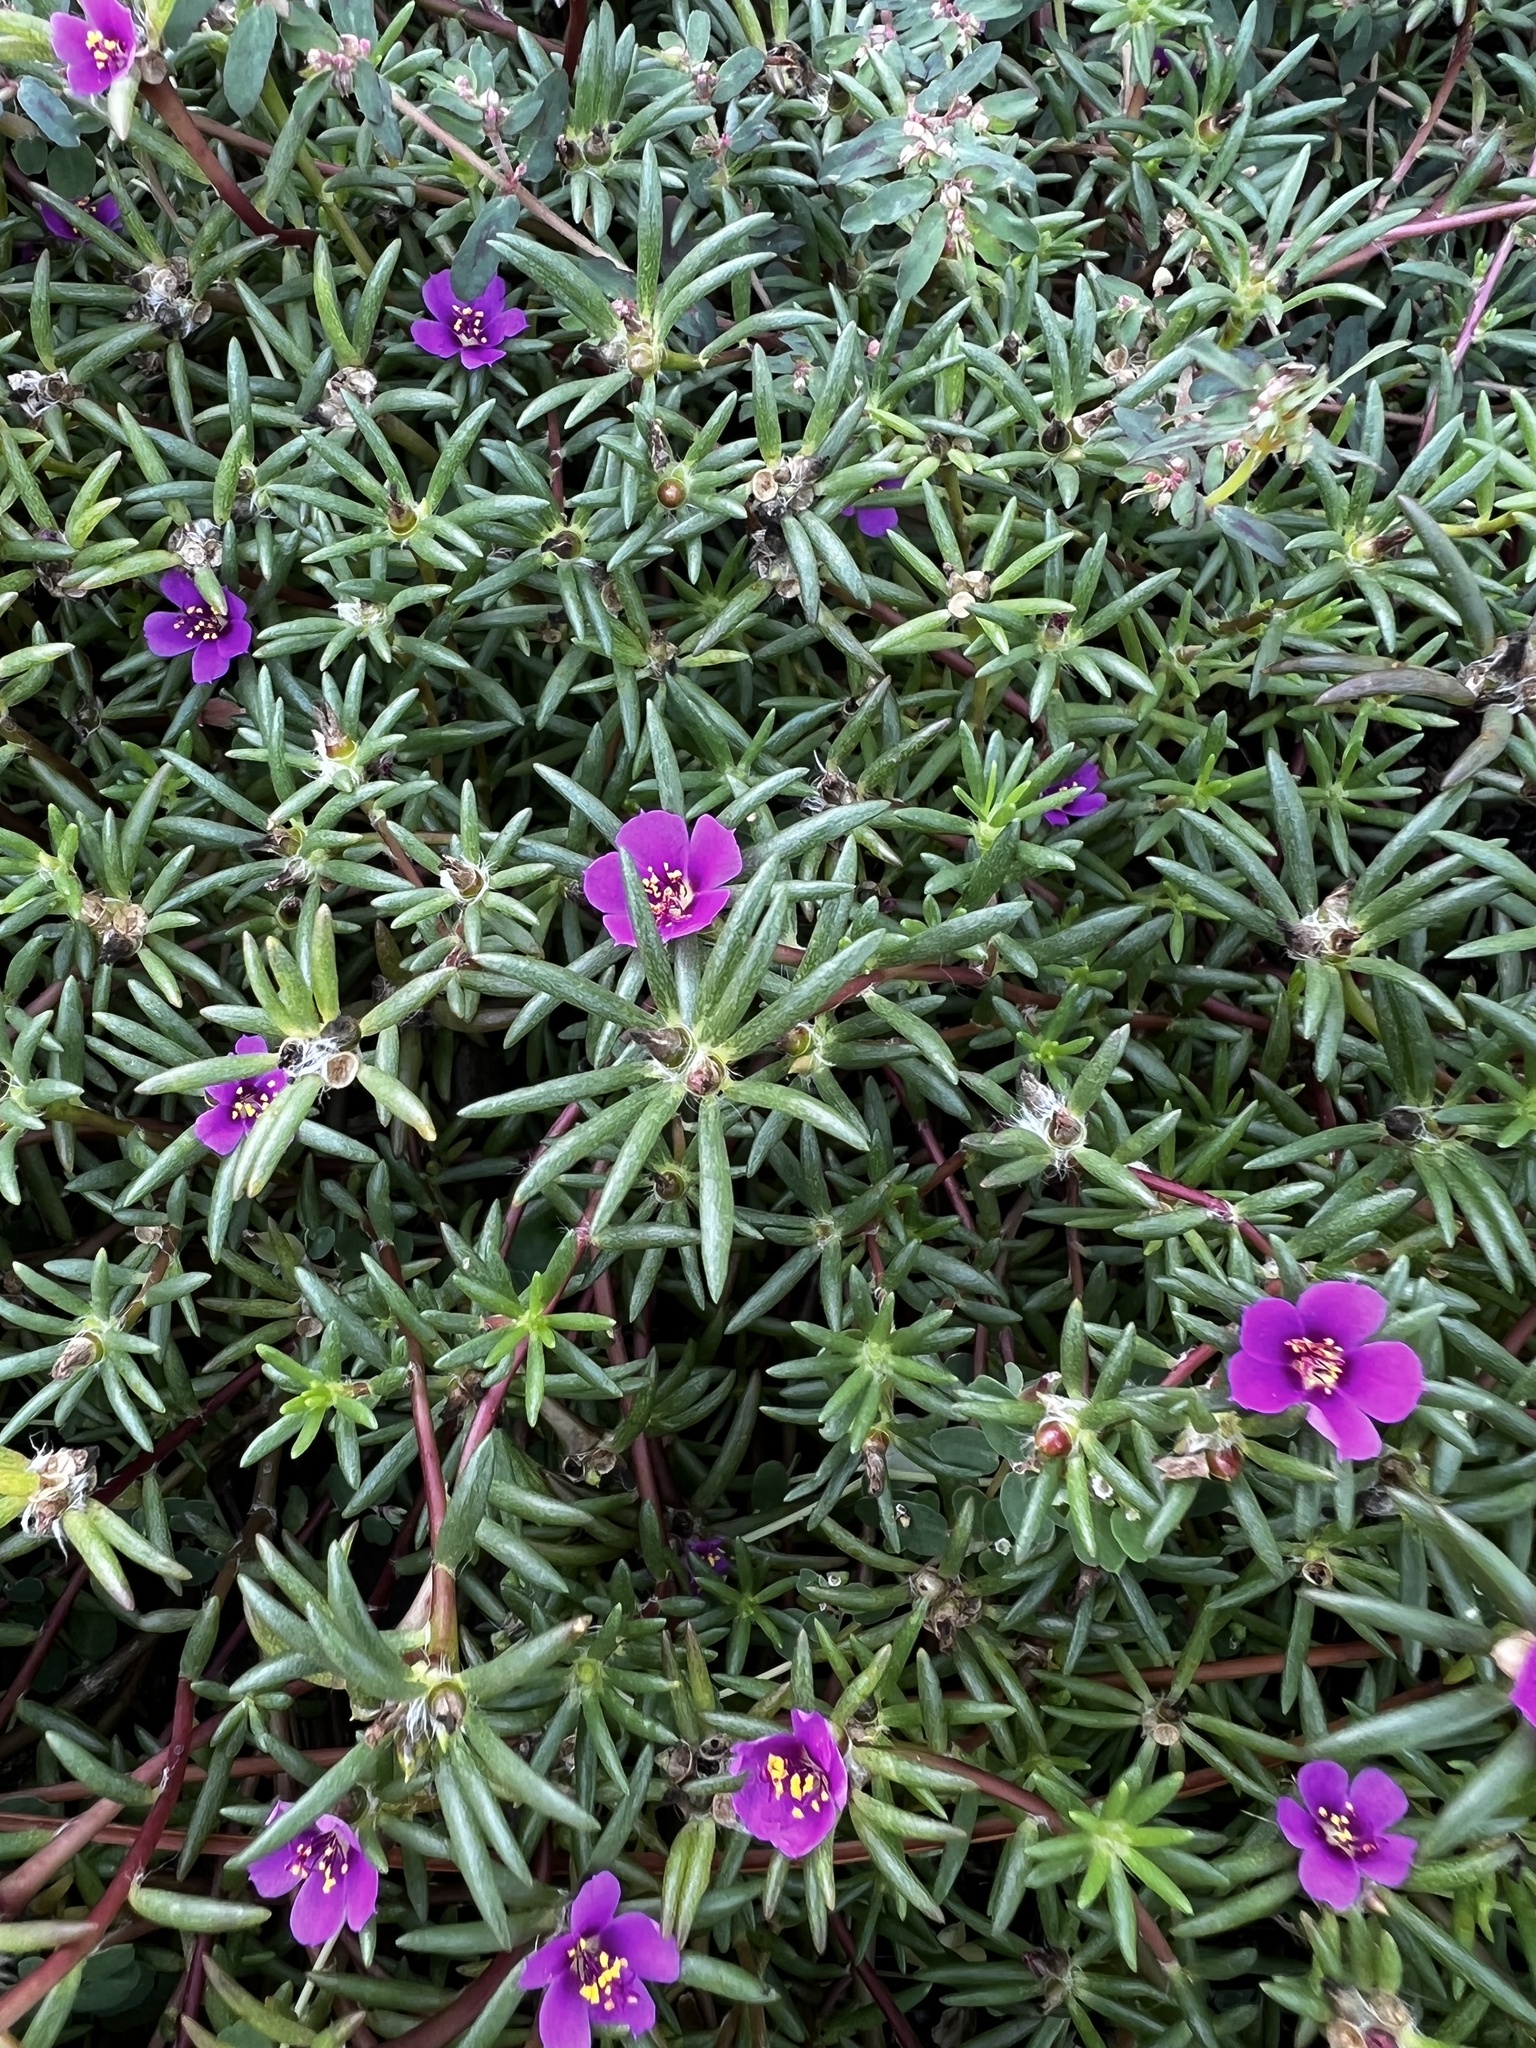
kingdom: Plantae
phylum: Tracheophyta
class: Magnoliopsida
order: Caryophyllales
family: Portulacaceae
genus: Portulaca
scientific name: Portulaca pilosa
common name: Kiss me quick
